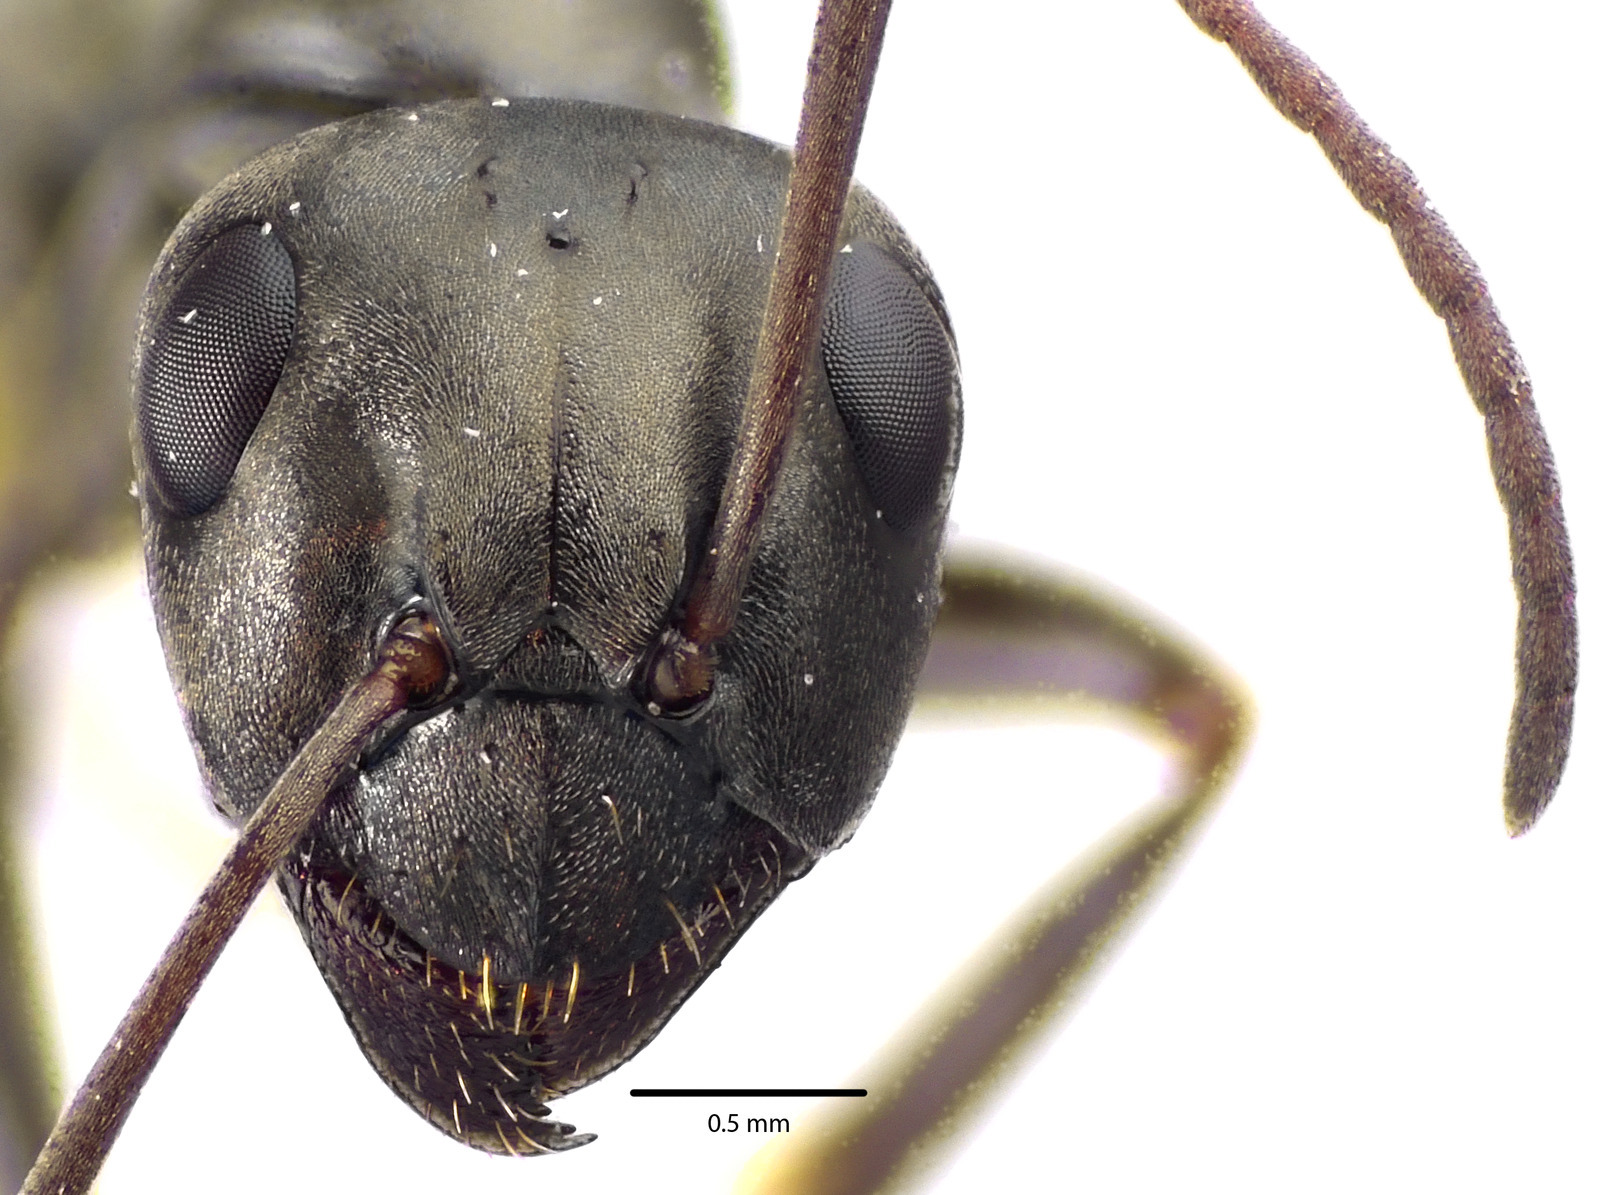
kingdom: Animalia
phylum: Arthropoda
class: Insecta
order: Hymenoptera
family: Formicidae
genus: Formica
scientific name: Formica subsericea
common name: Silky field ant
